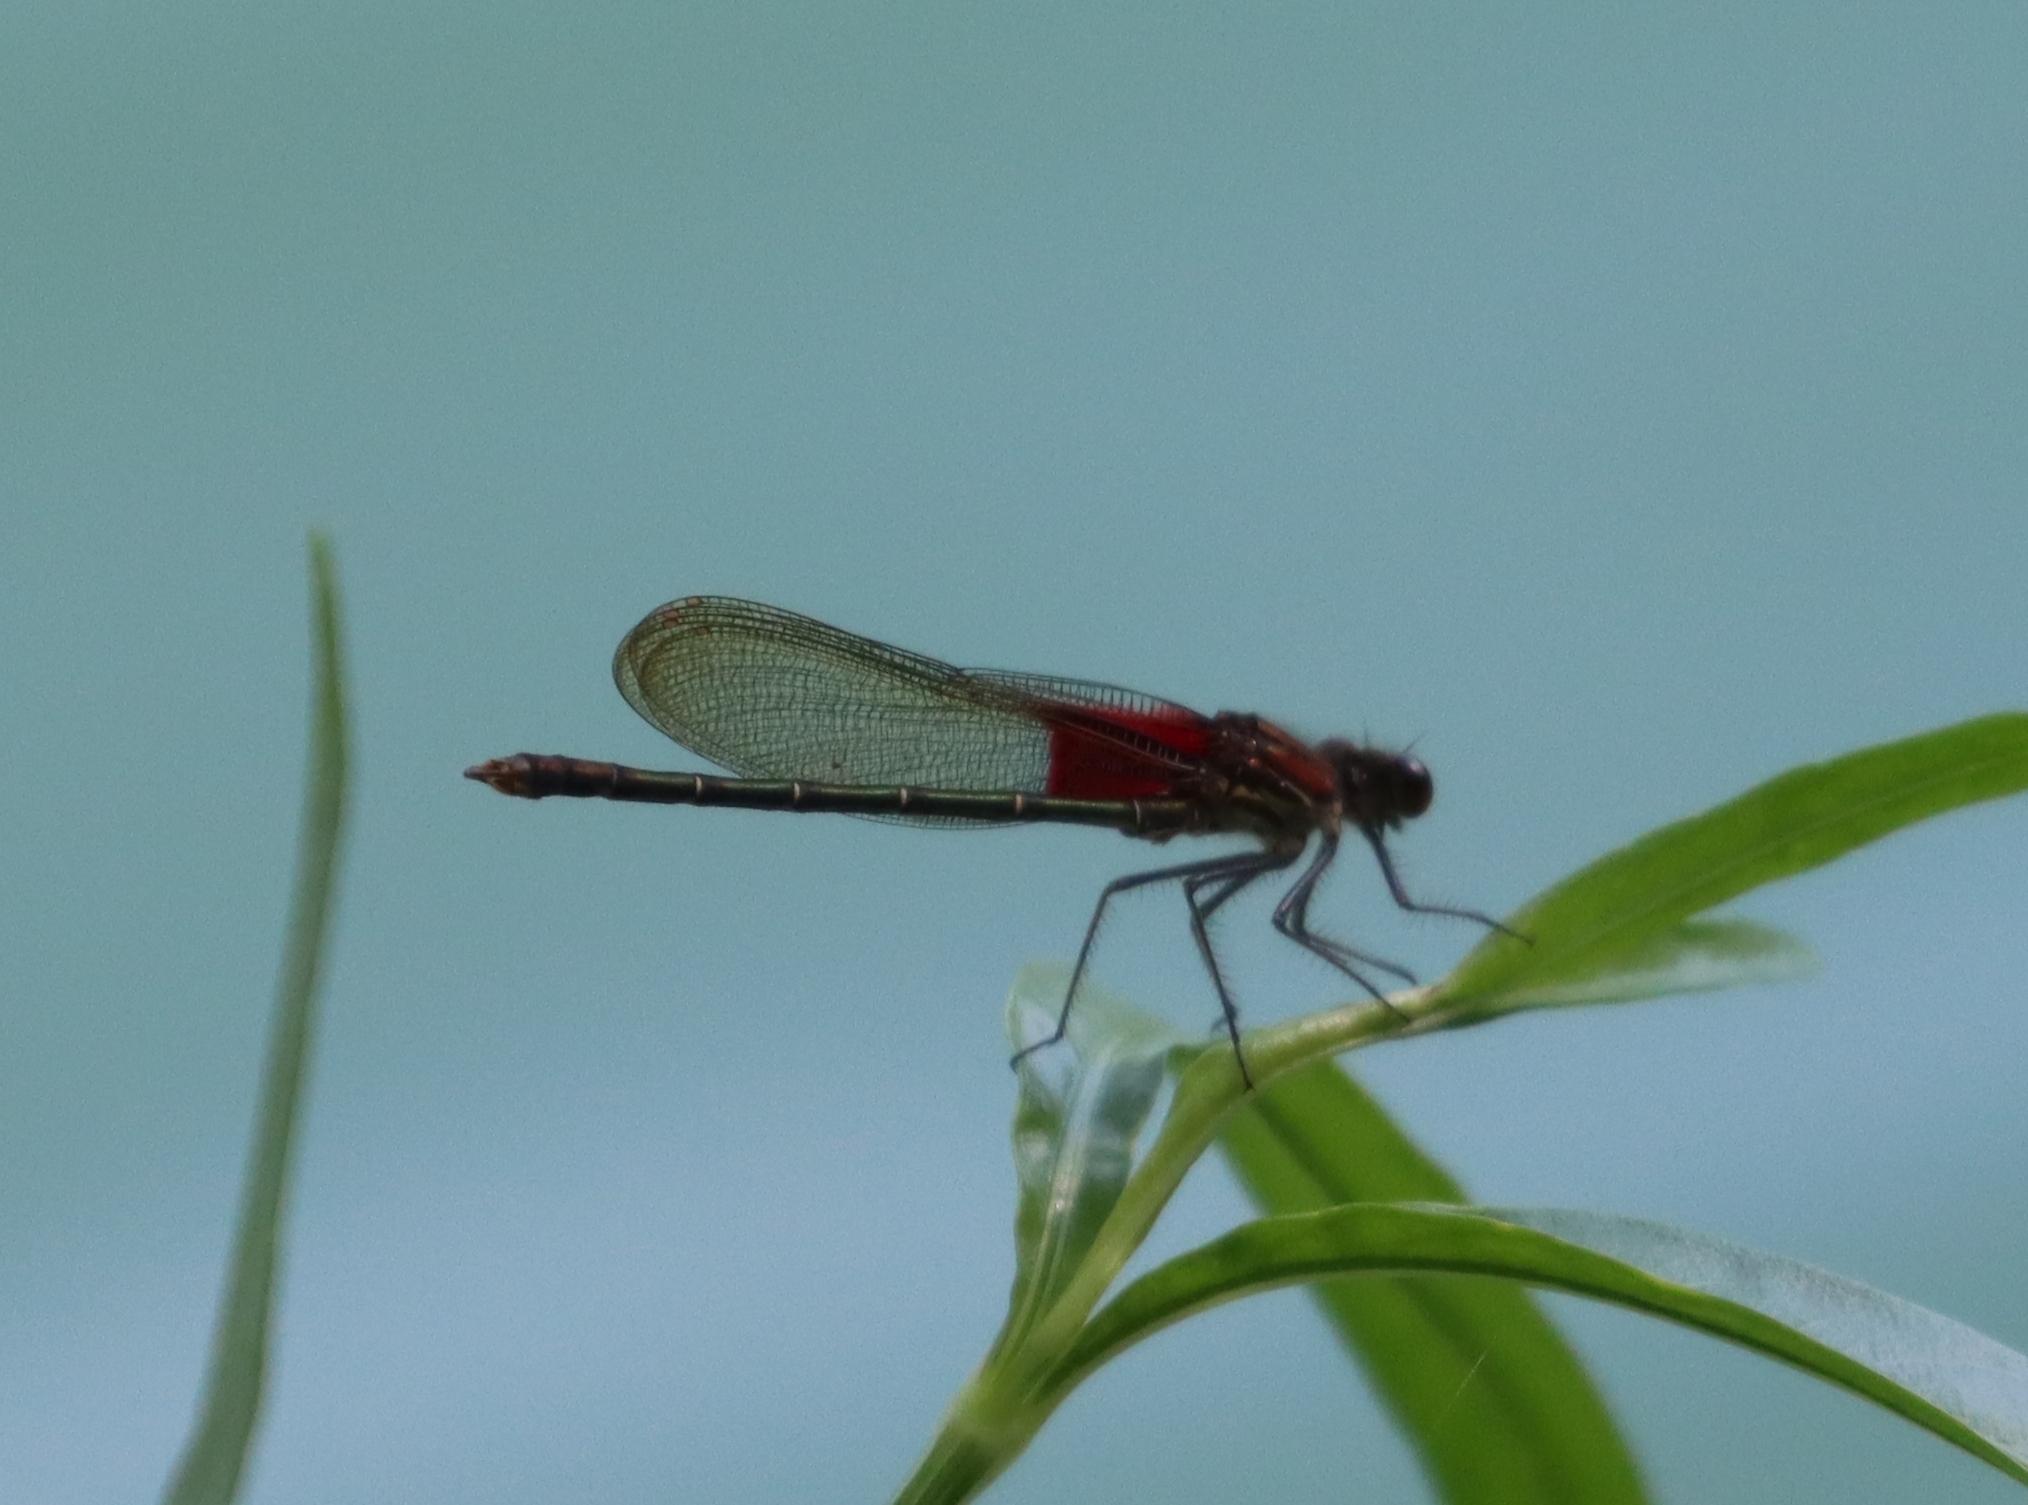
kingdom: Animalia
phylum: Arthropoda
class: Insecta
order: Odonata
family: Calopterygidae
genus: Hetaerina
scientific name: Hetaerina americana
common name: American rubyspot
